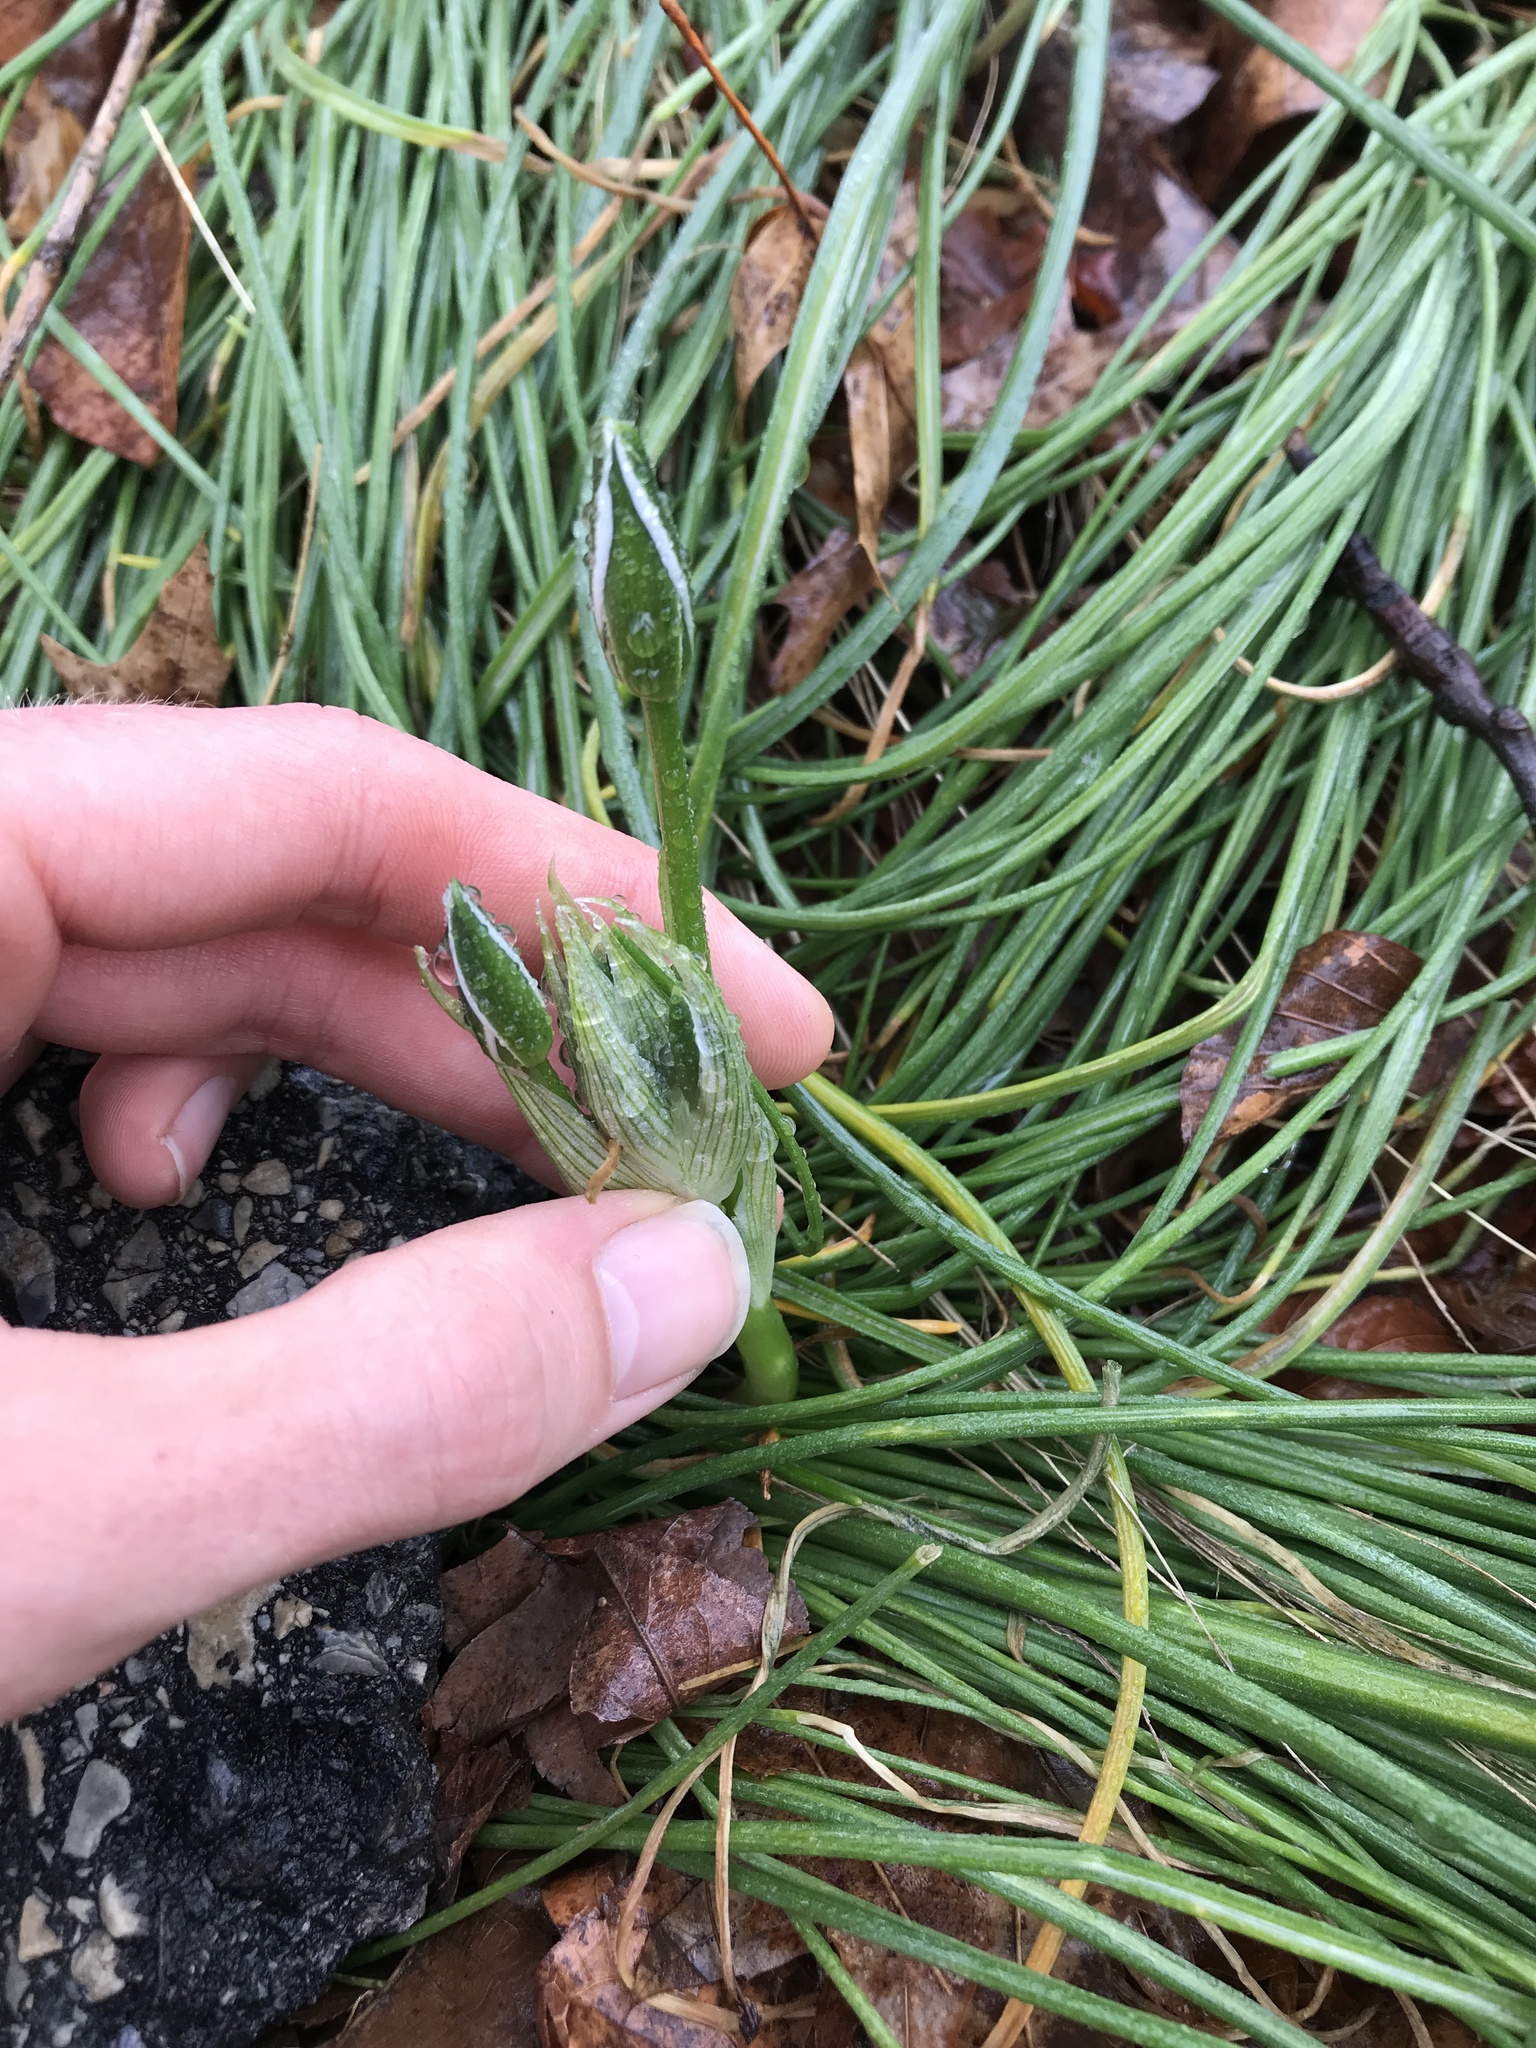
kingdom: Plantae
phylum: Tracheophyta
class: Liliopsida
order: Asparagales
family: Asparagaceae
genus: Ornithogalum
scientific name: Ornithogalum umbellatum
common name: Garden star-of-bethlehem
